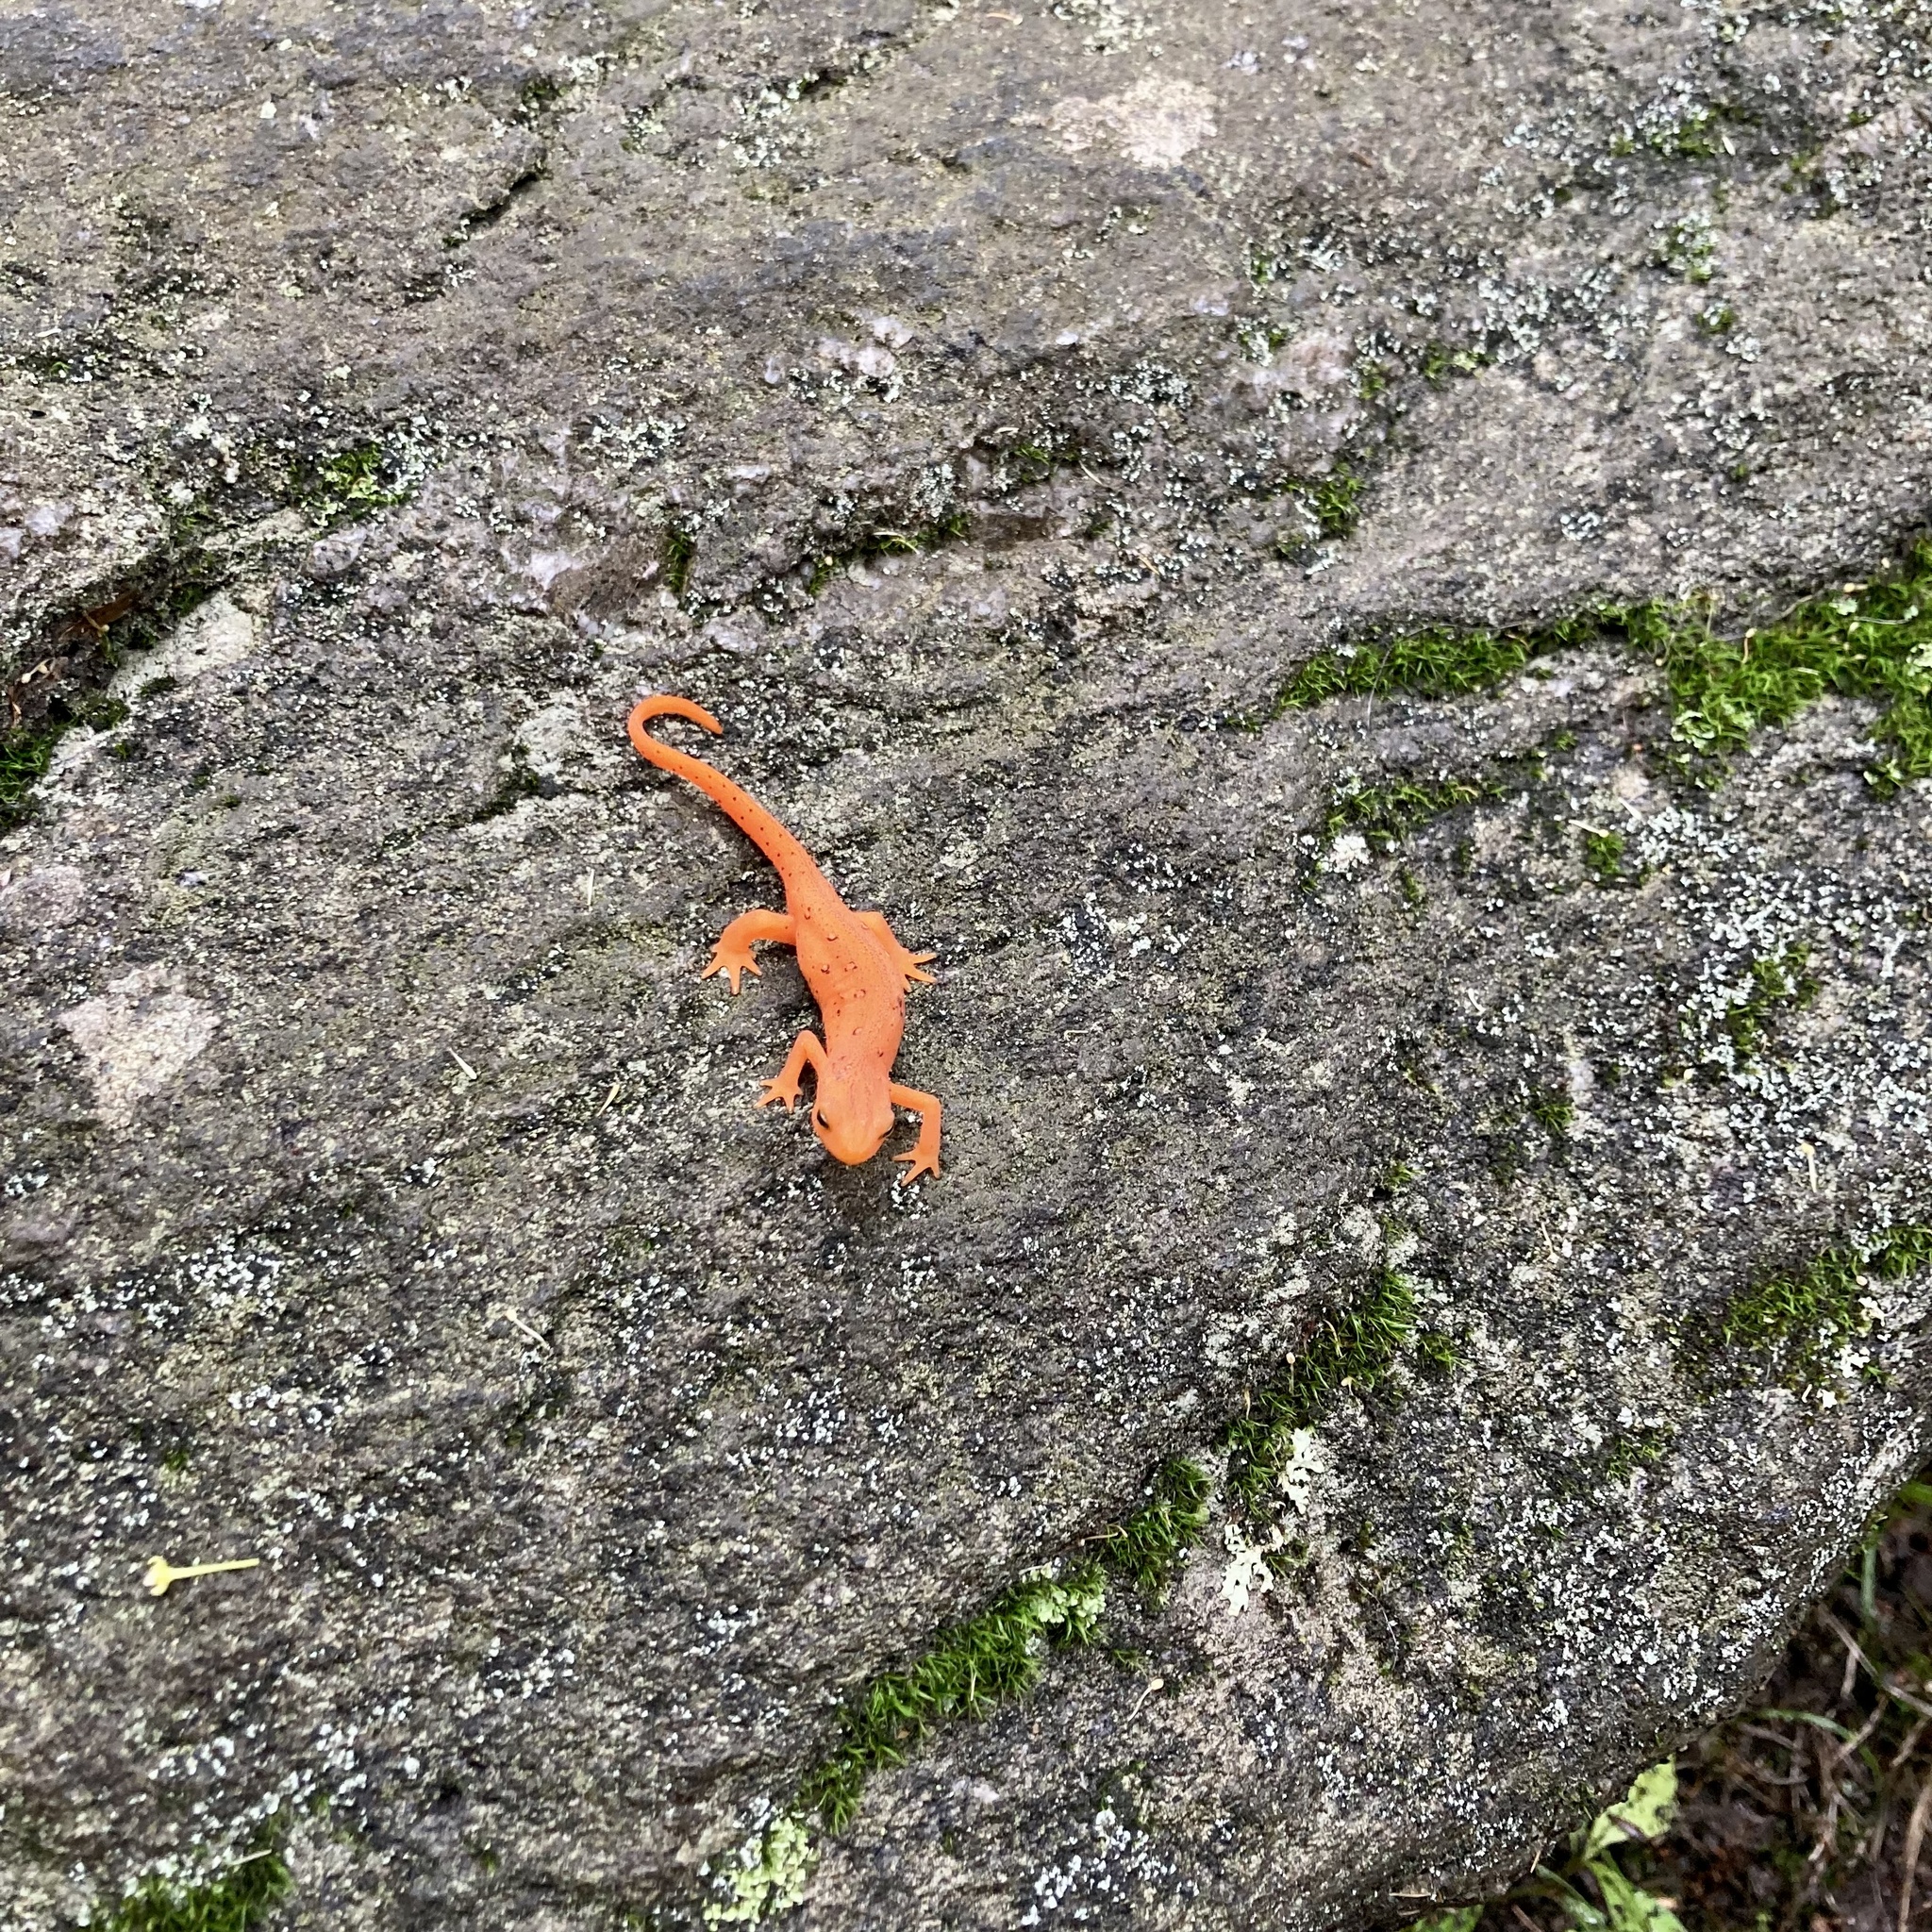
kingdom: Animalia
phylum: Chordata
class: Amphibia
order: Caudata
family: Salamandridae
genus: Notophthalmus
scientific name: Notophthalmus viridescens
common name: Eastern newt
